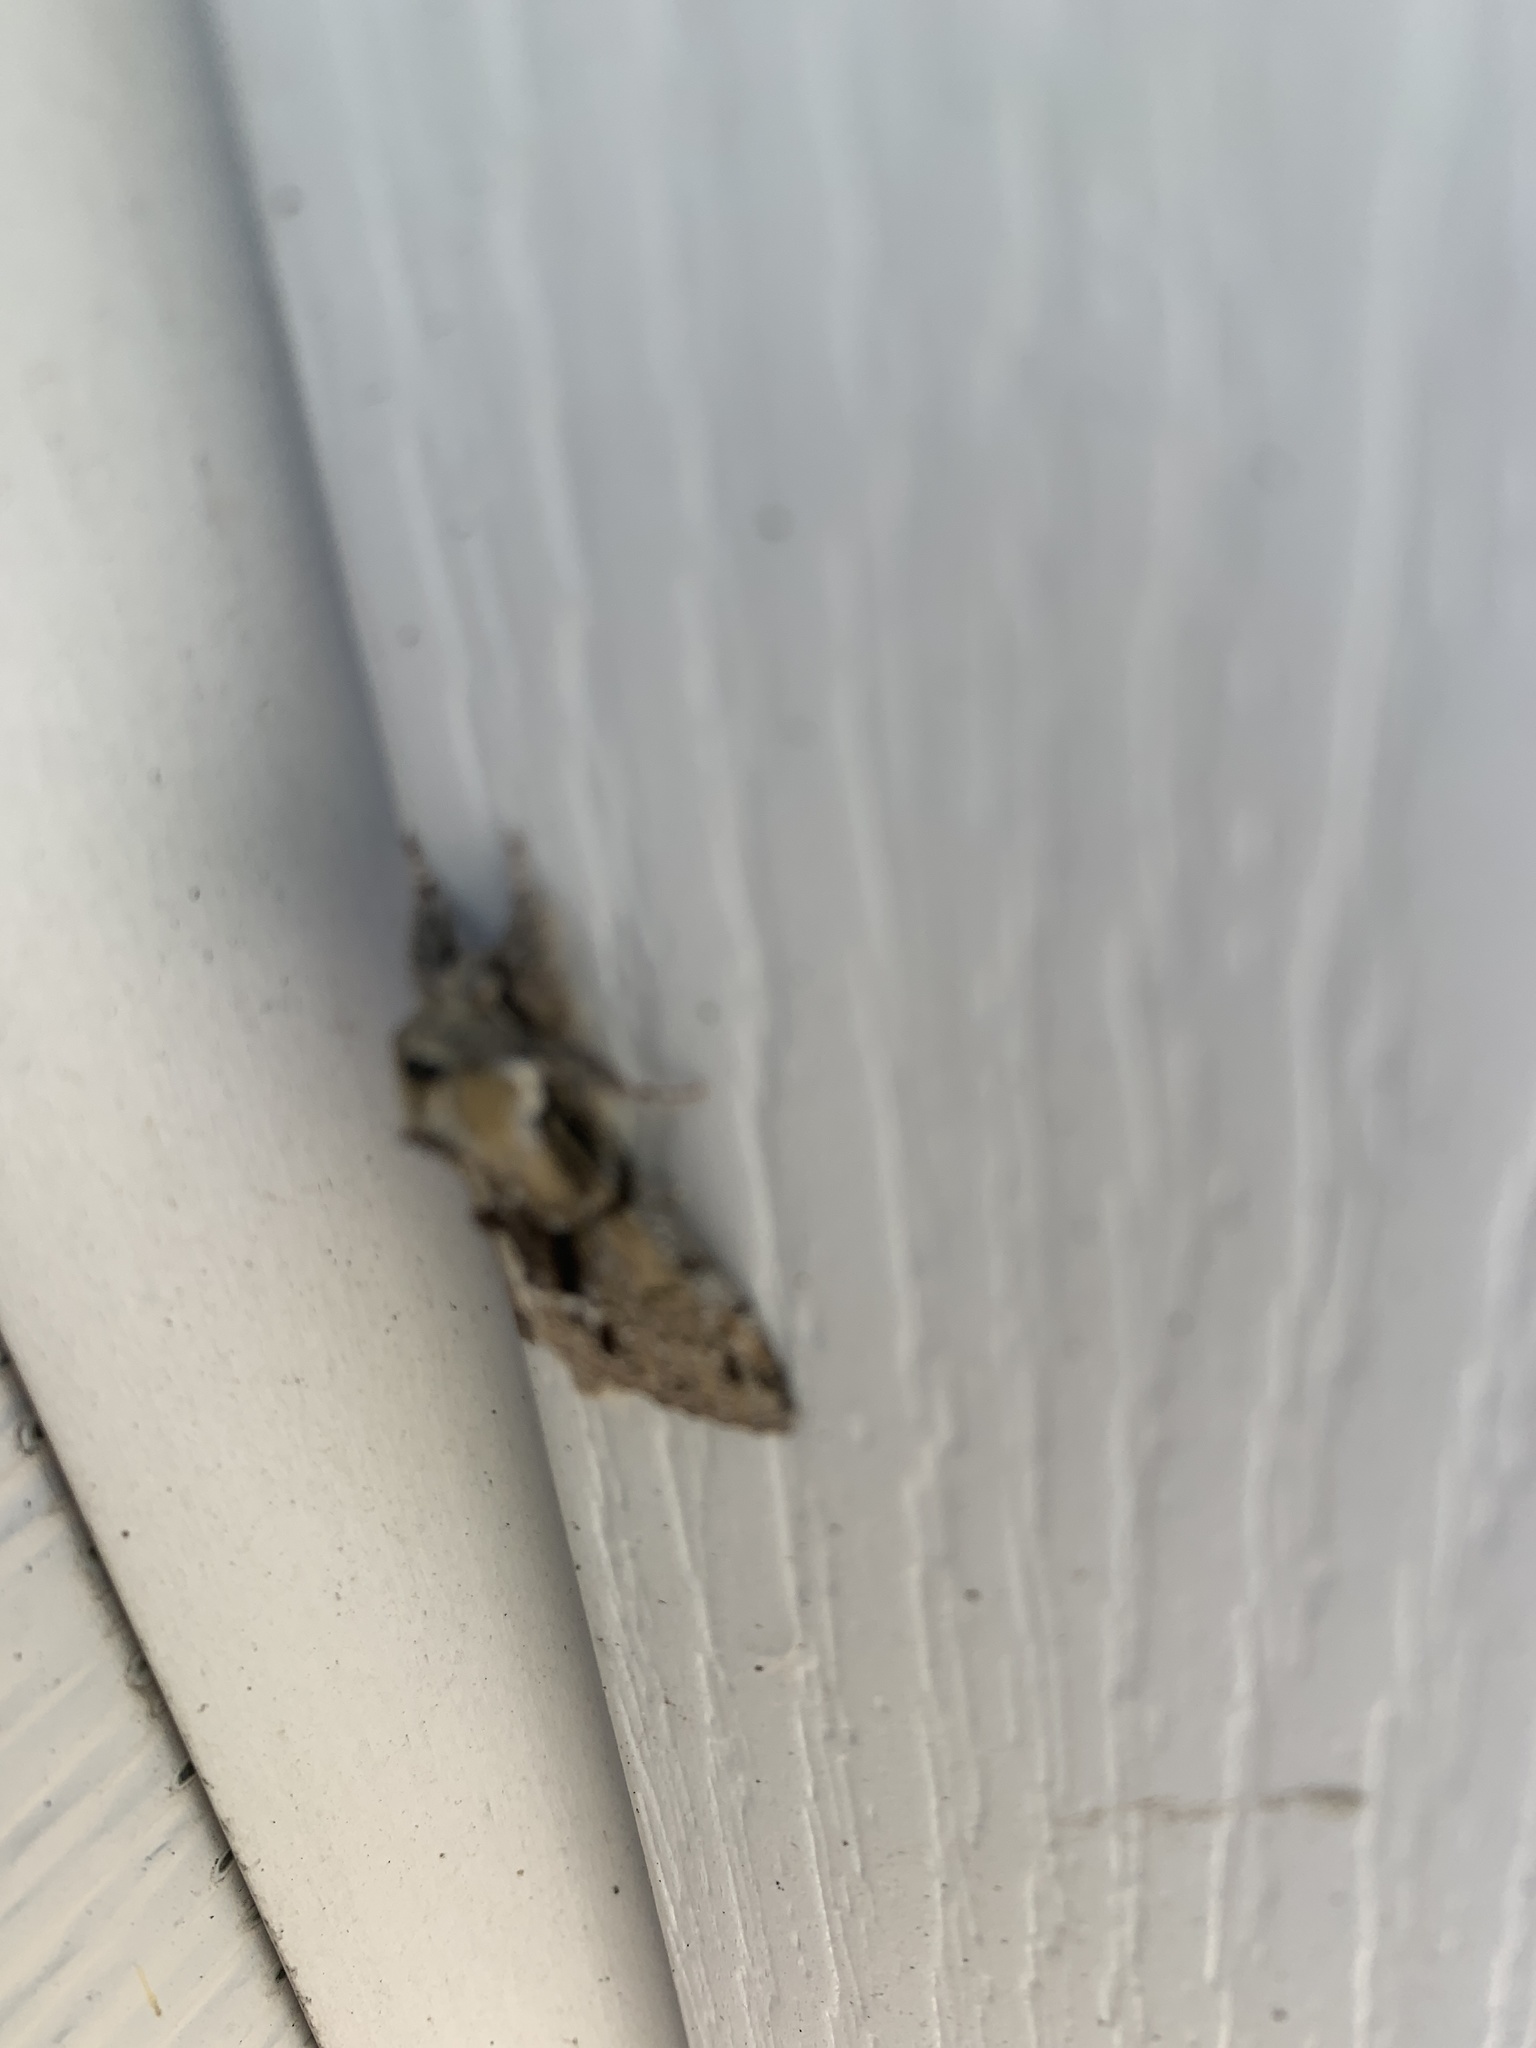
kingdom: Animalia
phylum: Arthropoda
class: Insecta
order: Lepidoptera
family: Notodontidae
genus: Paraeschra
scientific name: Paraeschra georgica
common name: Georgian prominent
